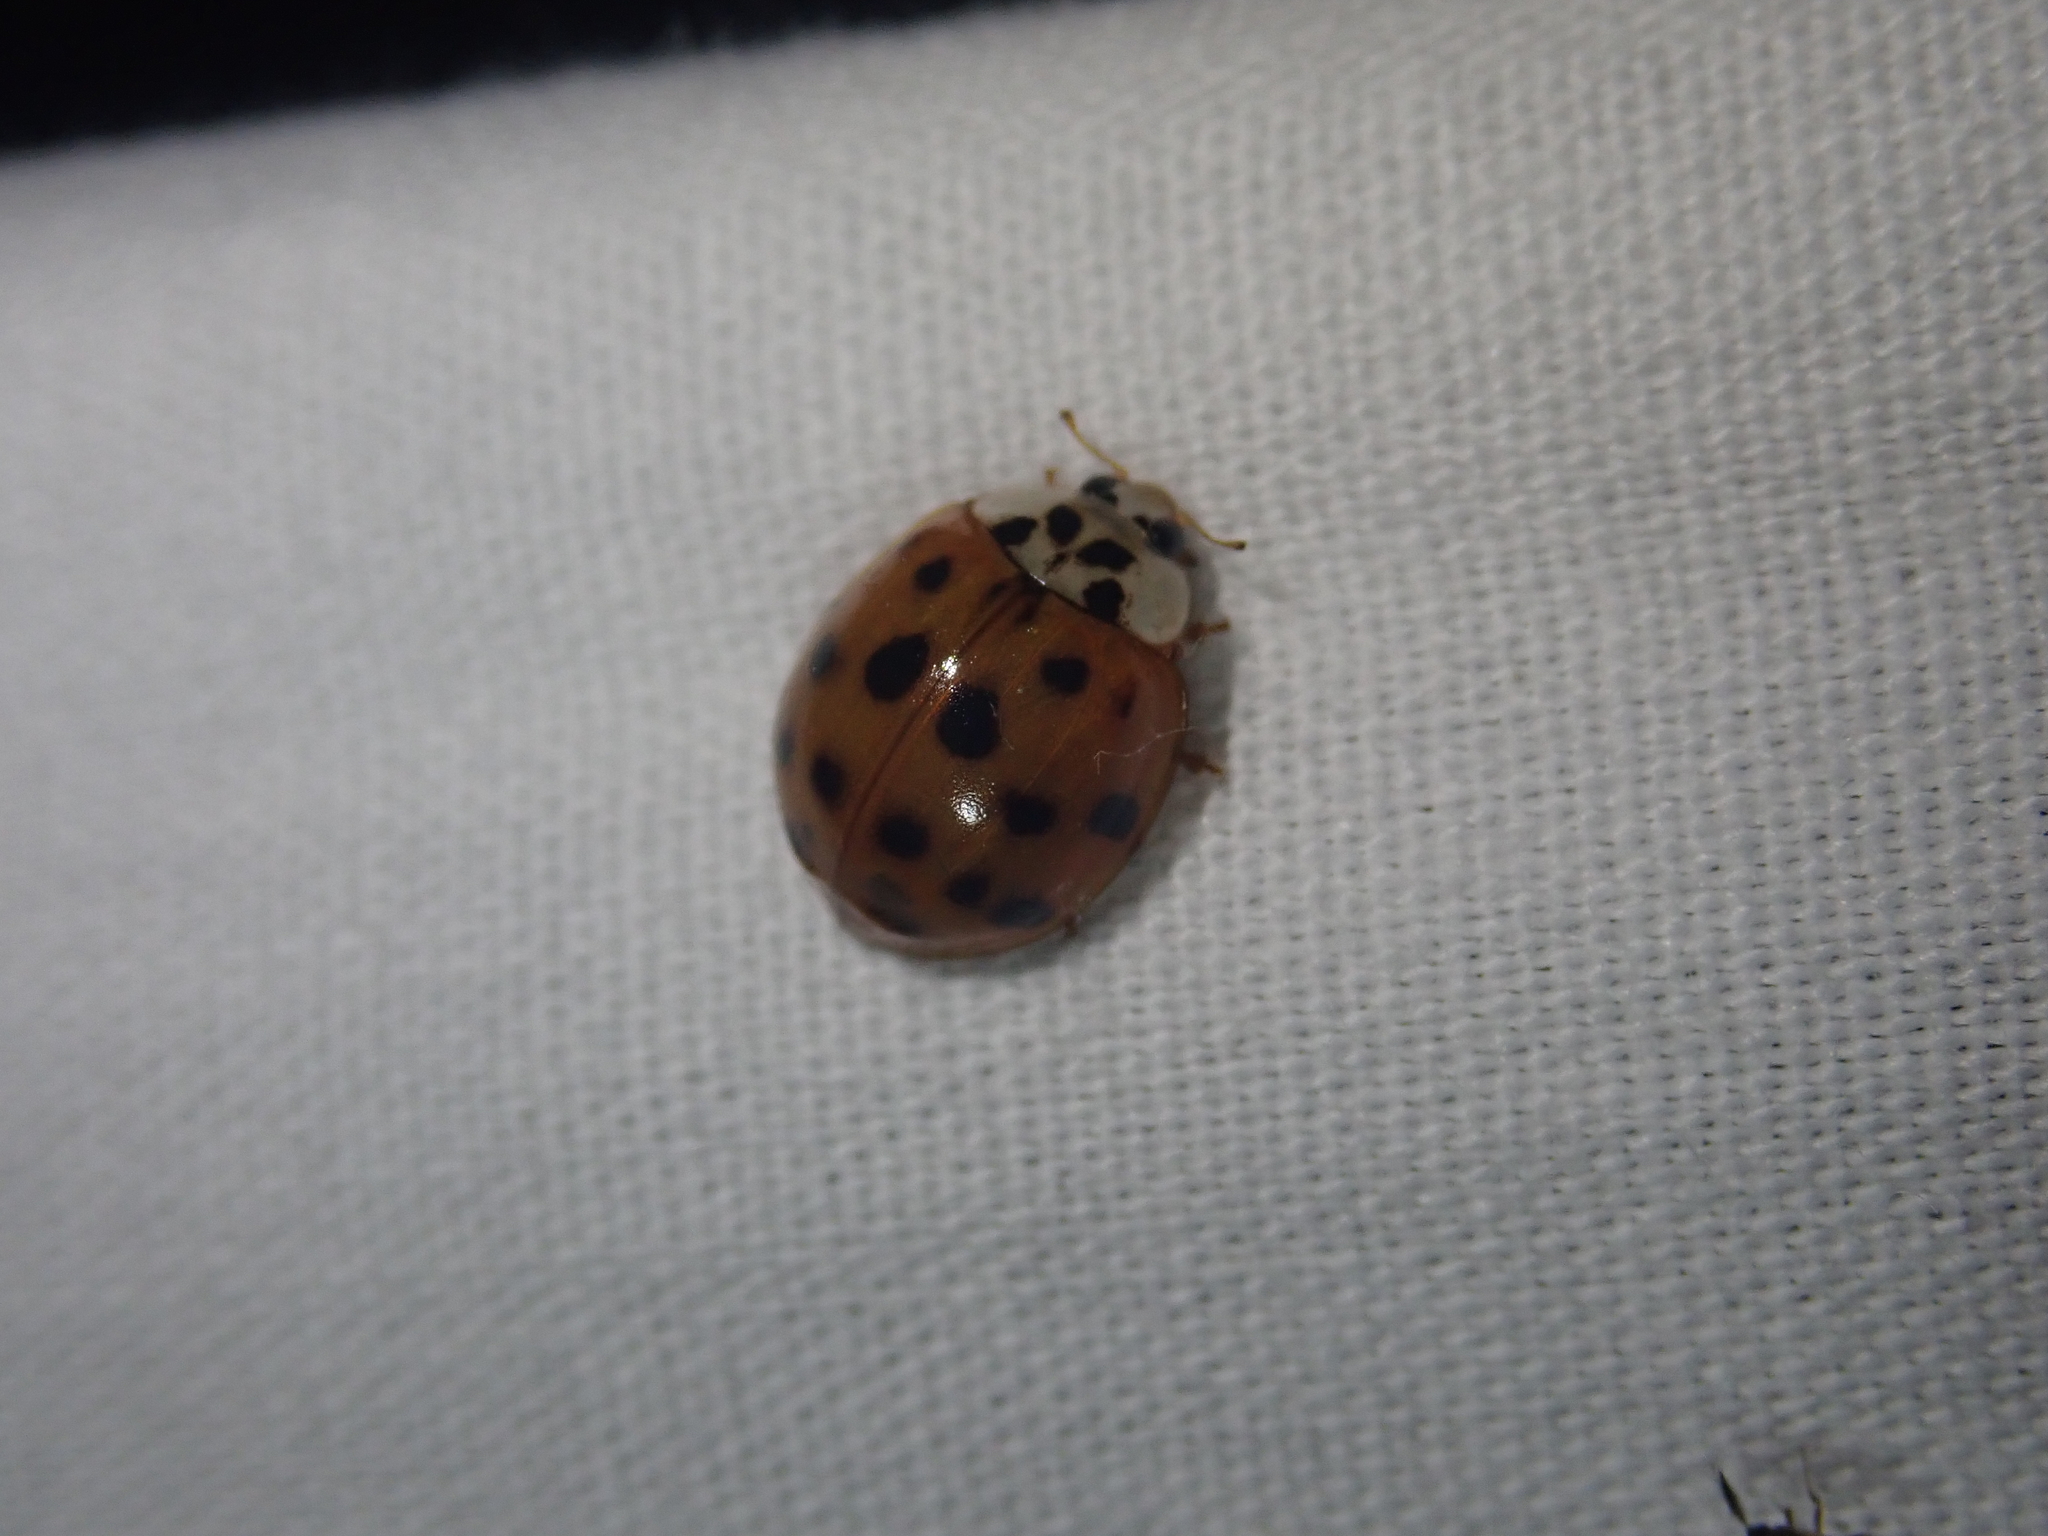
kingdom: Animalia
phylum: Arthropoda
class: Insecta
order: Coleoptera
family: Coccinellidae
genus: Harmonia
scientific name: Harmonia axyridis
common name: Harlequin ladybird
